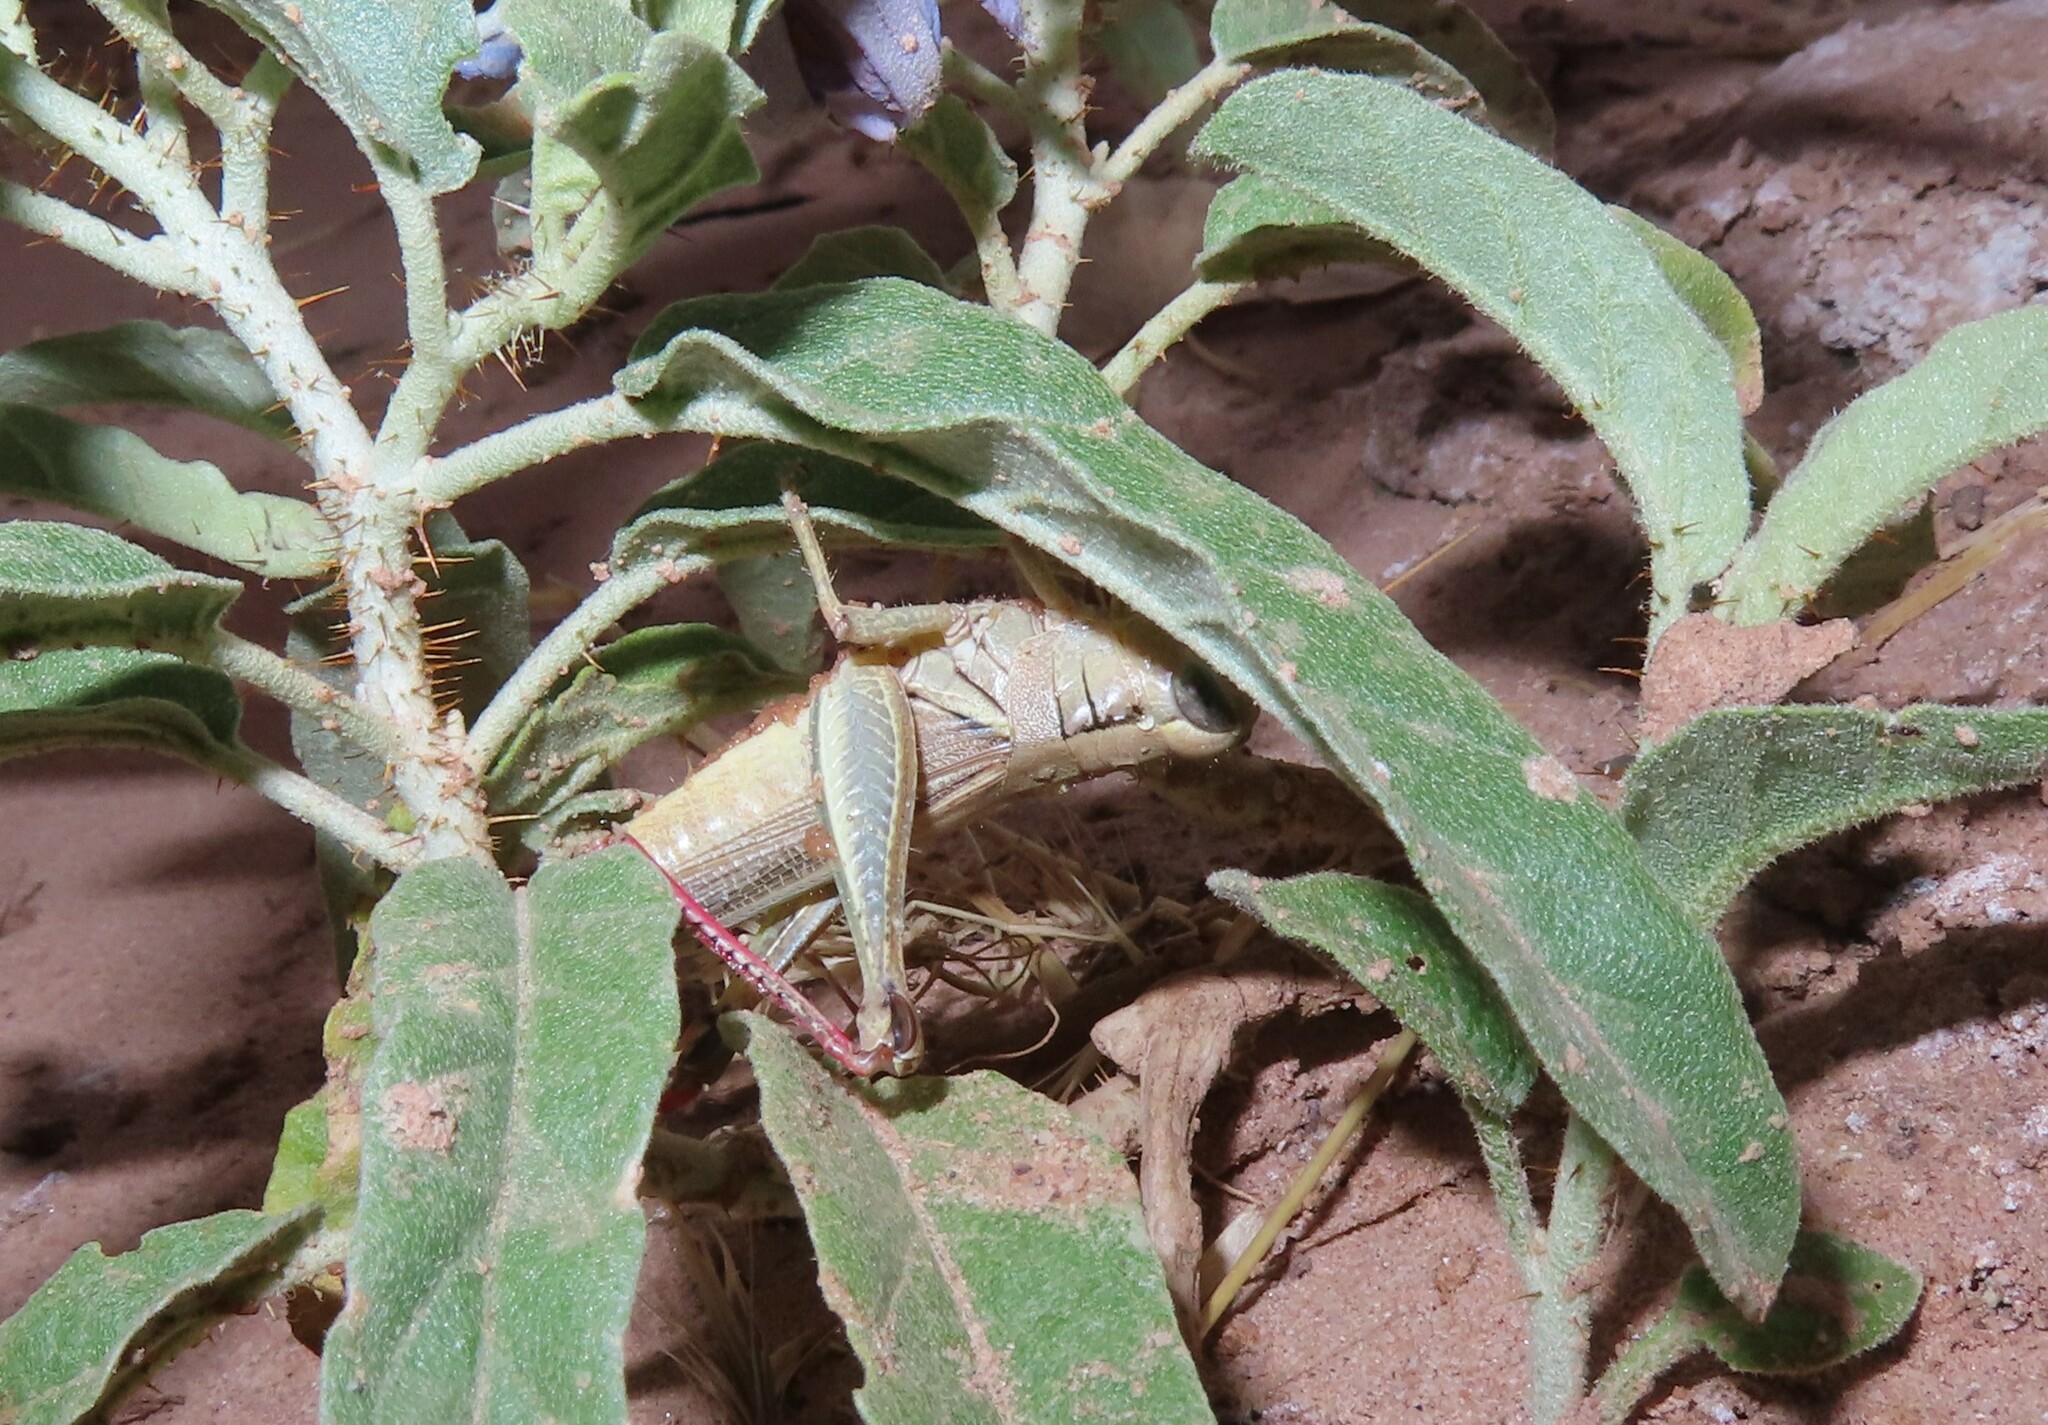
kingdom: Animalia
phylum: Arthropoda
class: Insecta
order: Orthoptera
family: Acrididae
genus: Melanoplus
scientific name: Melanoplus yarrowii
